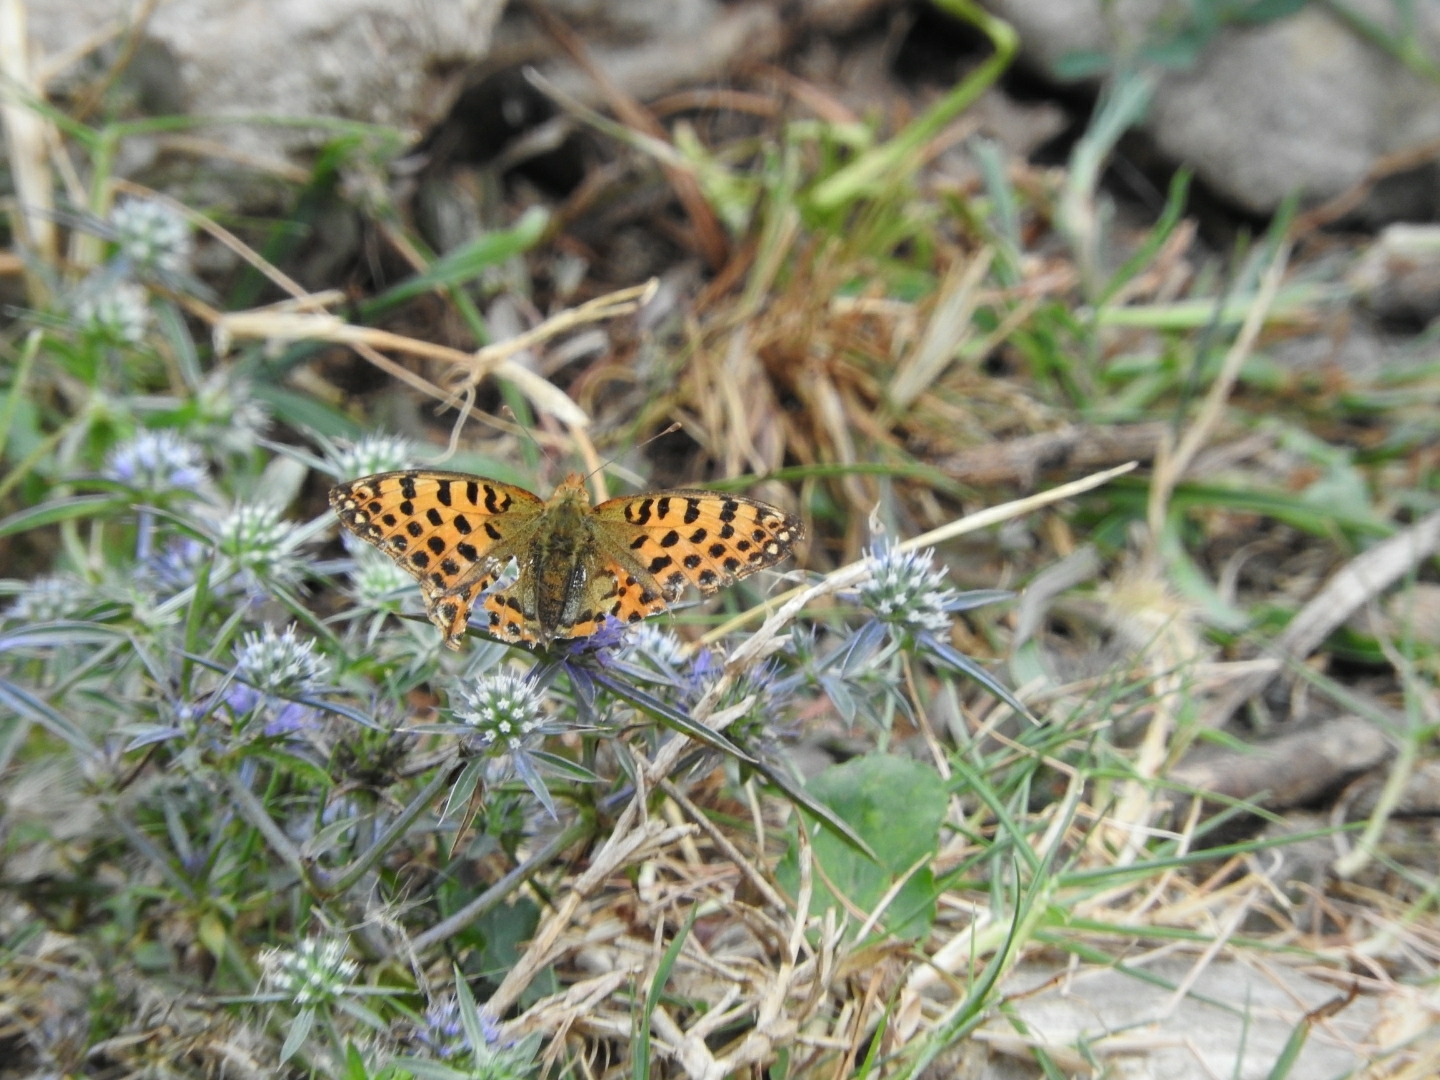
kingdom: Animalia
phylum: Arthropoda
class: Insecta
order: Lepidoptera
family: Nymphalidae
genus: Issoria
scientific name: Issoria lathonia
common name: Queen of spain fritillary
